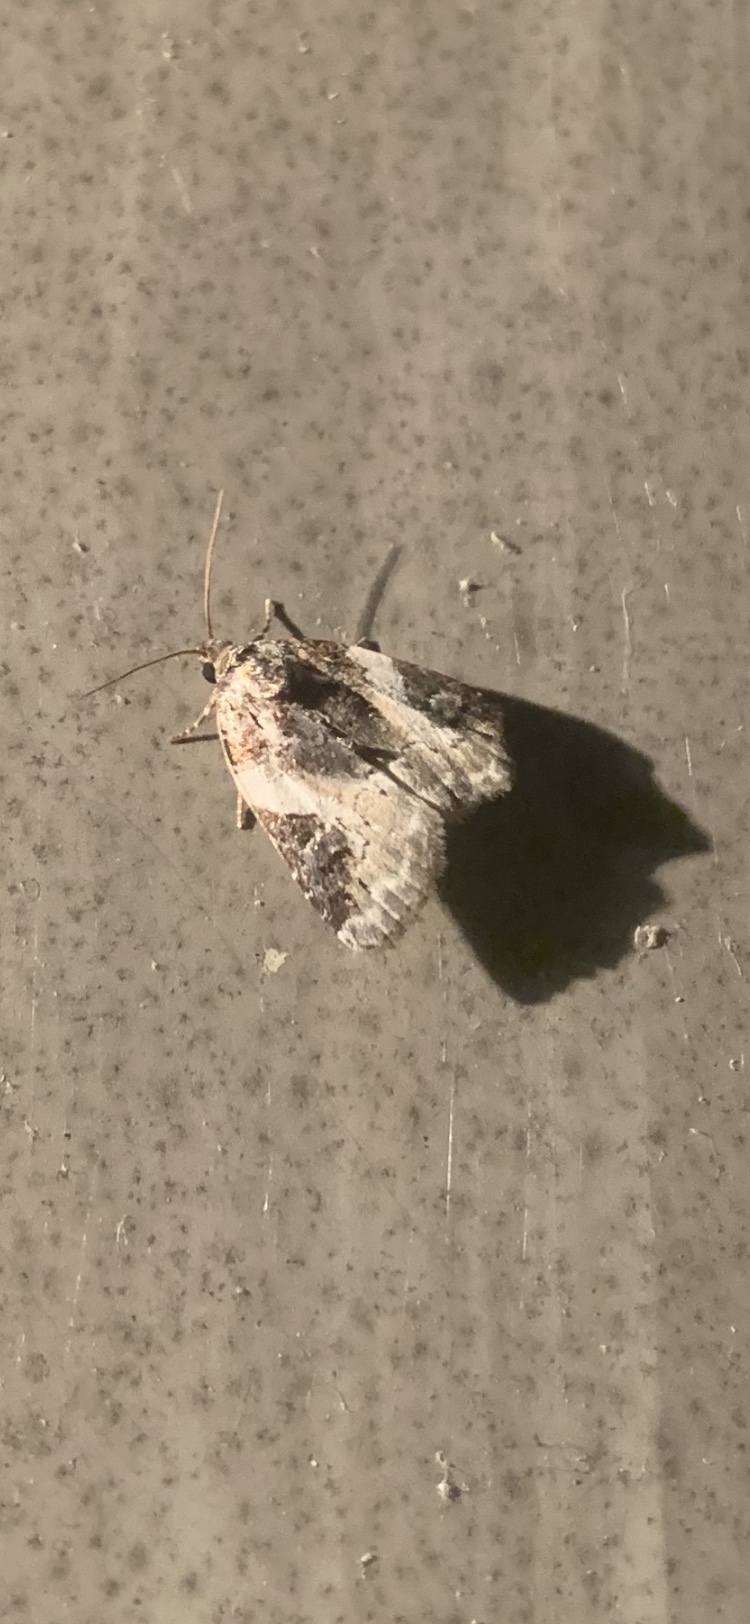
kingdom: Animalia
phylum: Arthropoda
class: Insecta
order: Lepidoptera
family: Noctuidae
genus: Pseudeustrotia
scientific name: Pseudeustrotia carneola
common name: Pink-barred lithacodia moth
